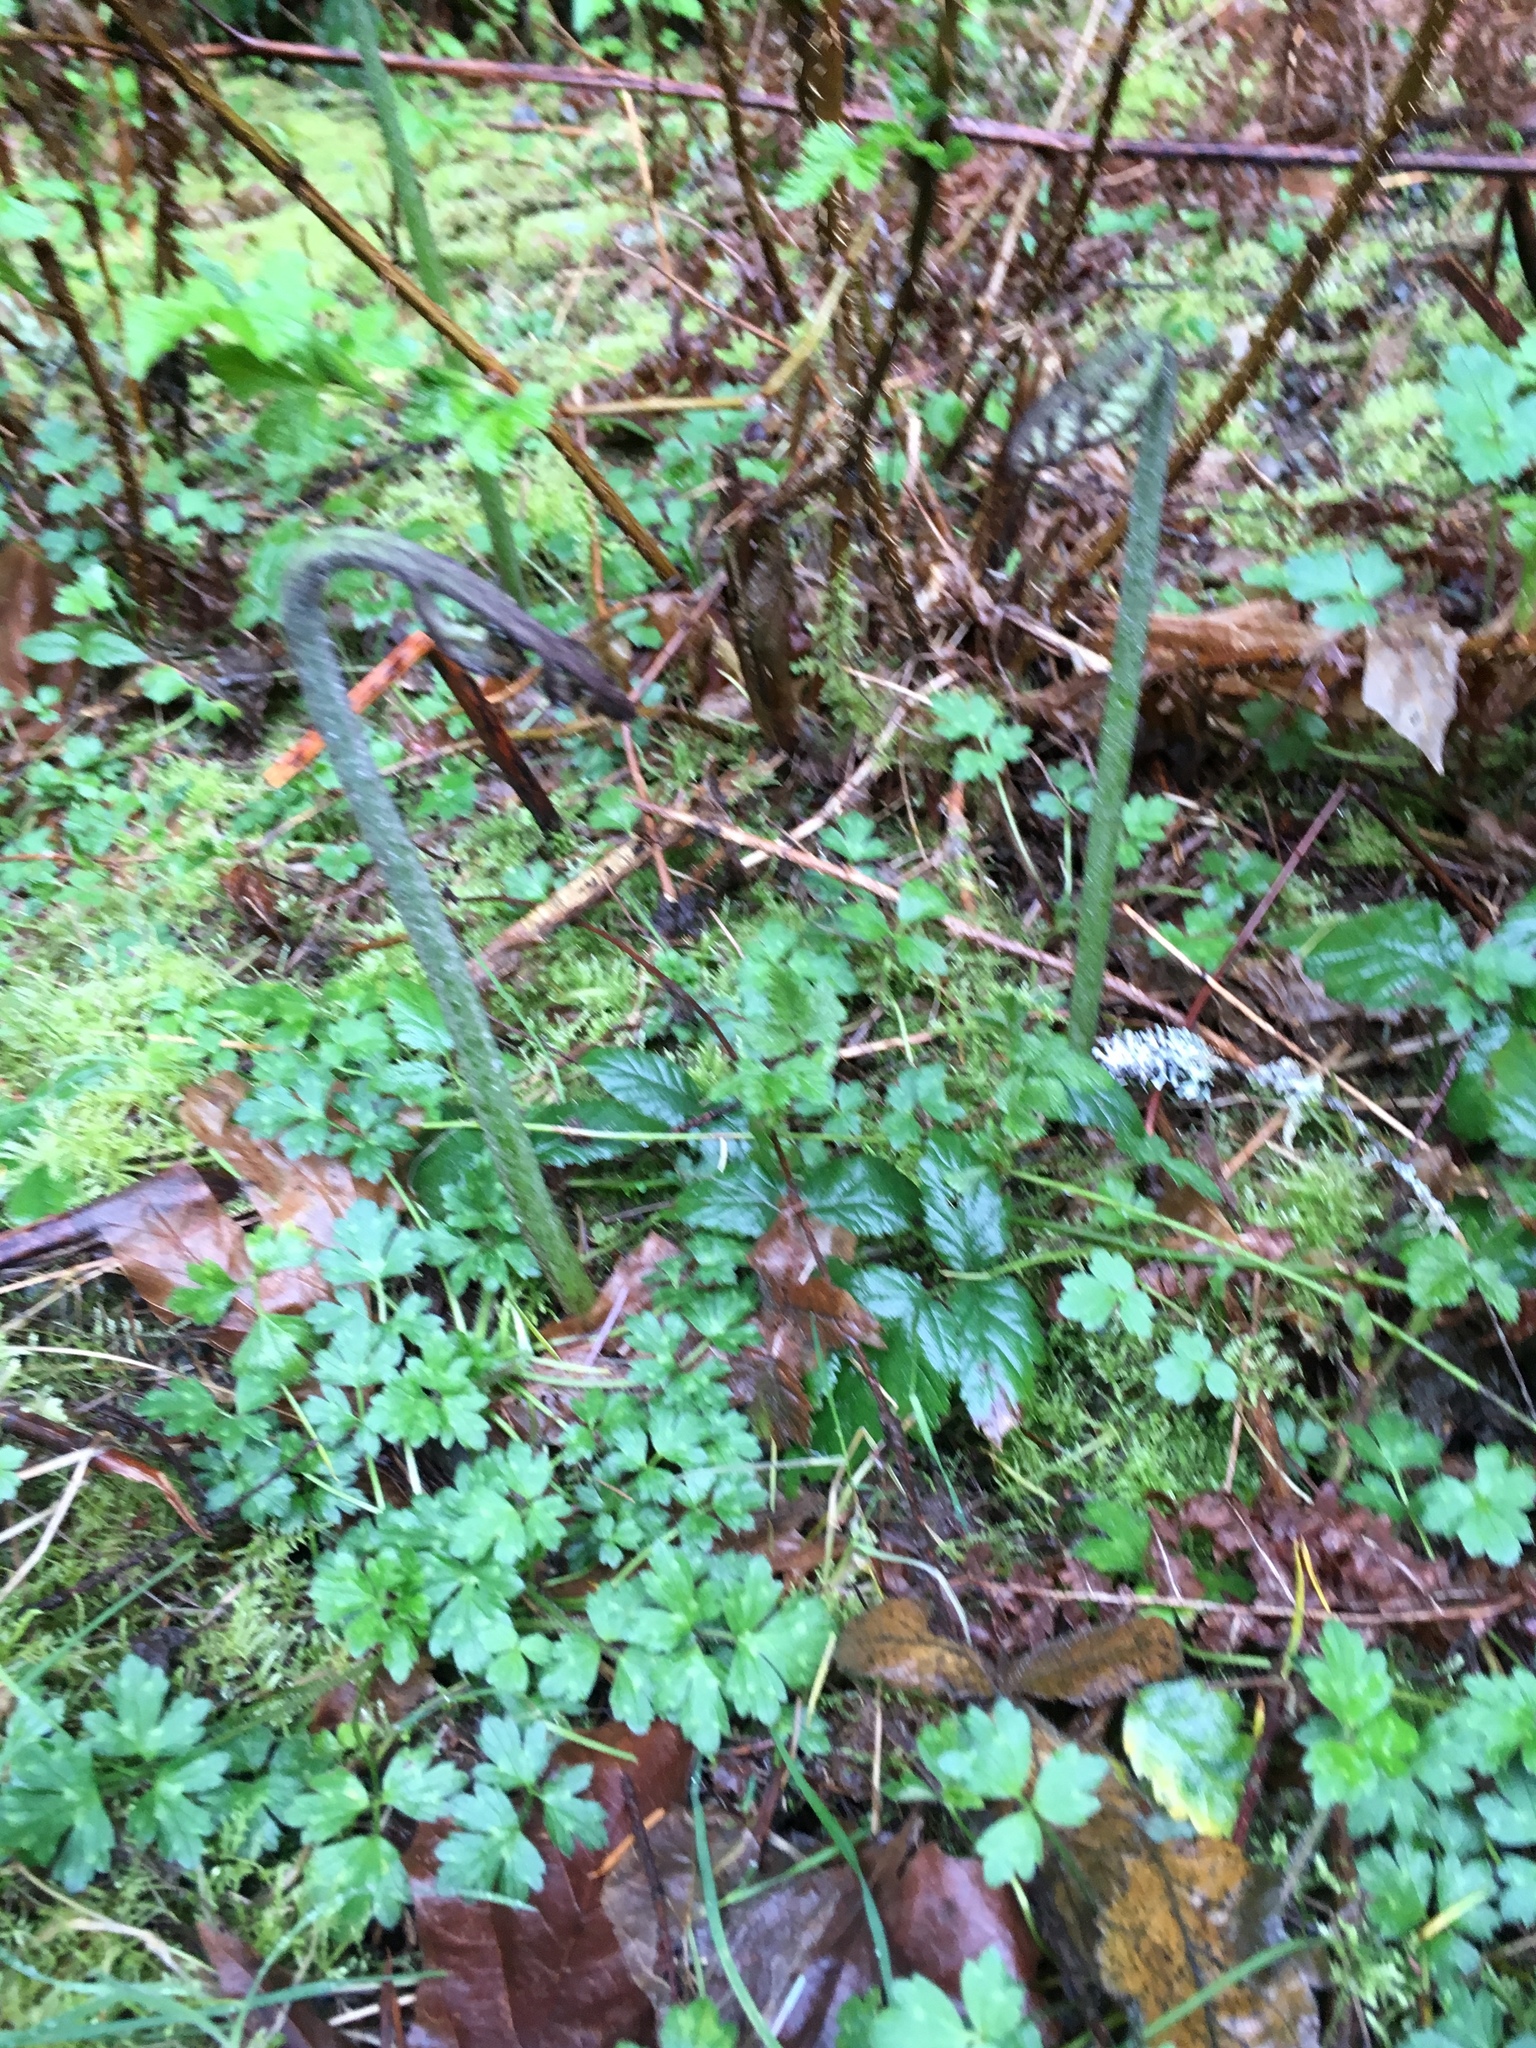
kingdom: Plantae
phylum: Tracheophyta
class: Polypodiopsida
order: Polypodiales
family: Dennstaedtiaceae
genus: Pteridium
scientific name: Pteridium aquilinum
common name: Bracken
